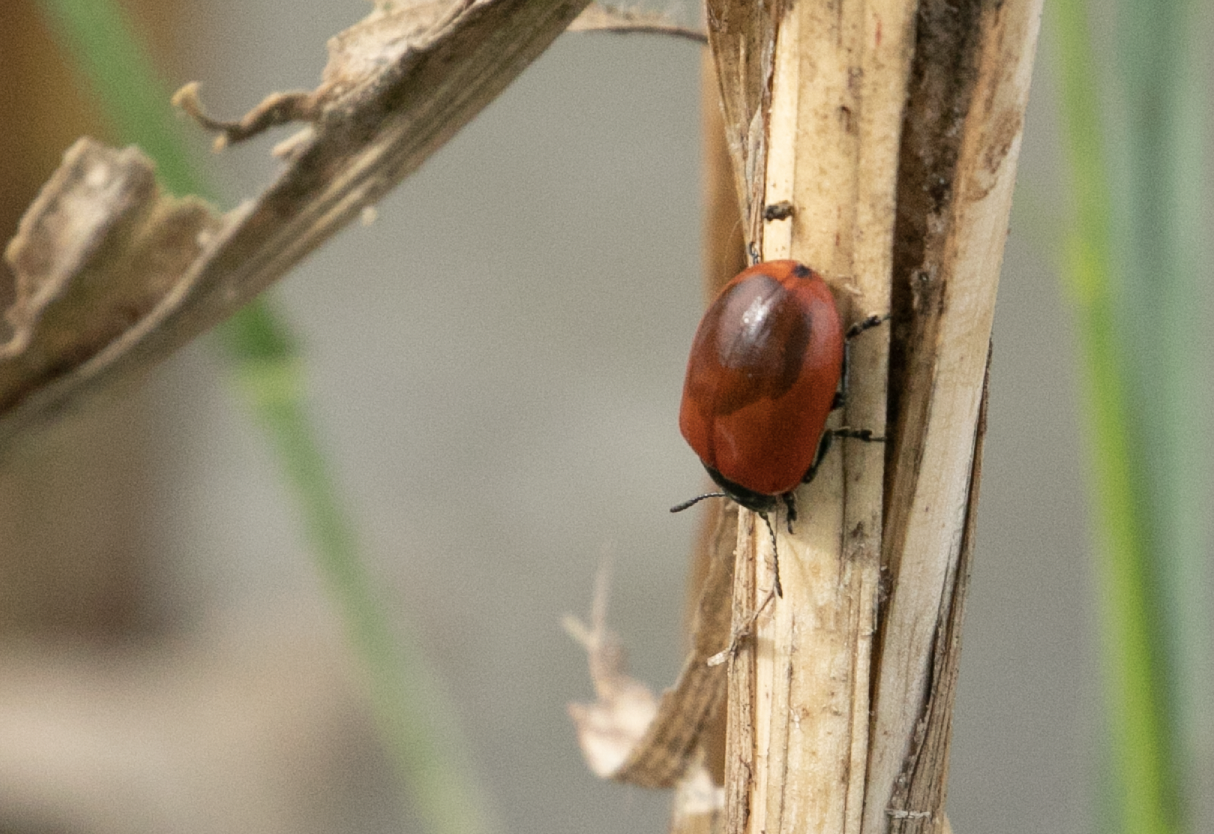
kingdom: Animalia
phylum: Arthropoda
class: Insecta
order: Coleoptera
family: Chrysomelidae
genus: Chrysomela
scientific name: Chrysomela populi
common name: Red poplar leaf beetle
